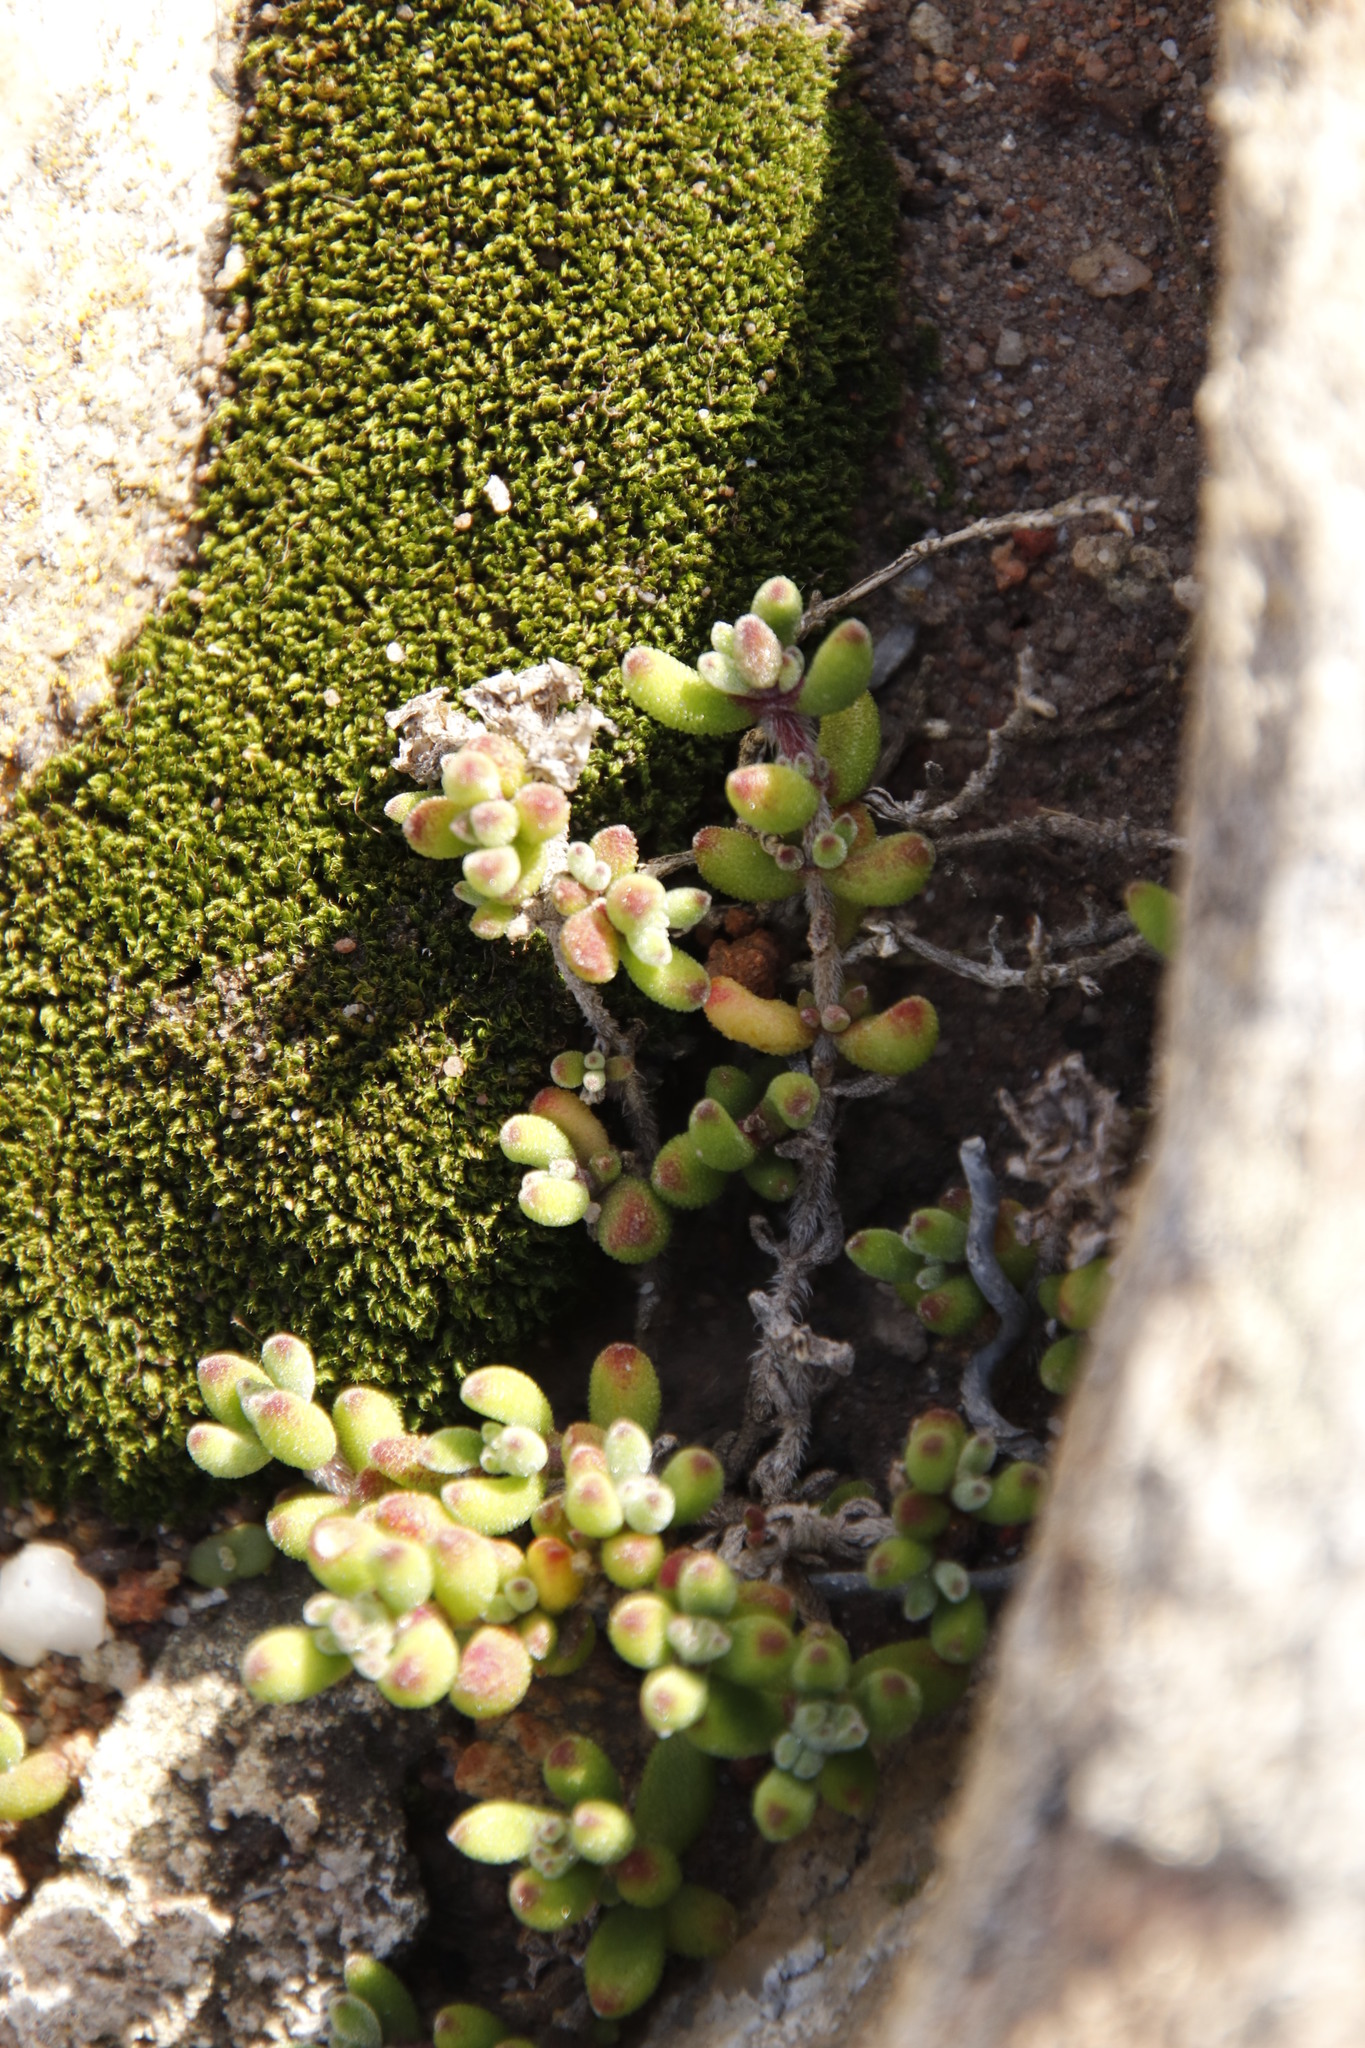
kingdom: Plantae
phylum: Bryophyta
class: Bryopsida
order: Bryales
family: Bryaceae
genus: Rosulabryum
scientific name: Rosulabryum torquescens
